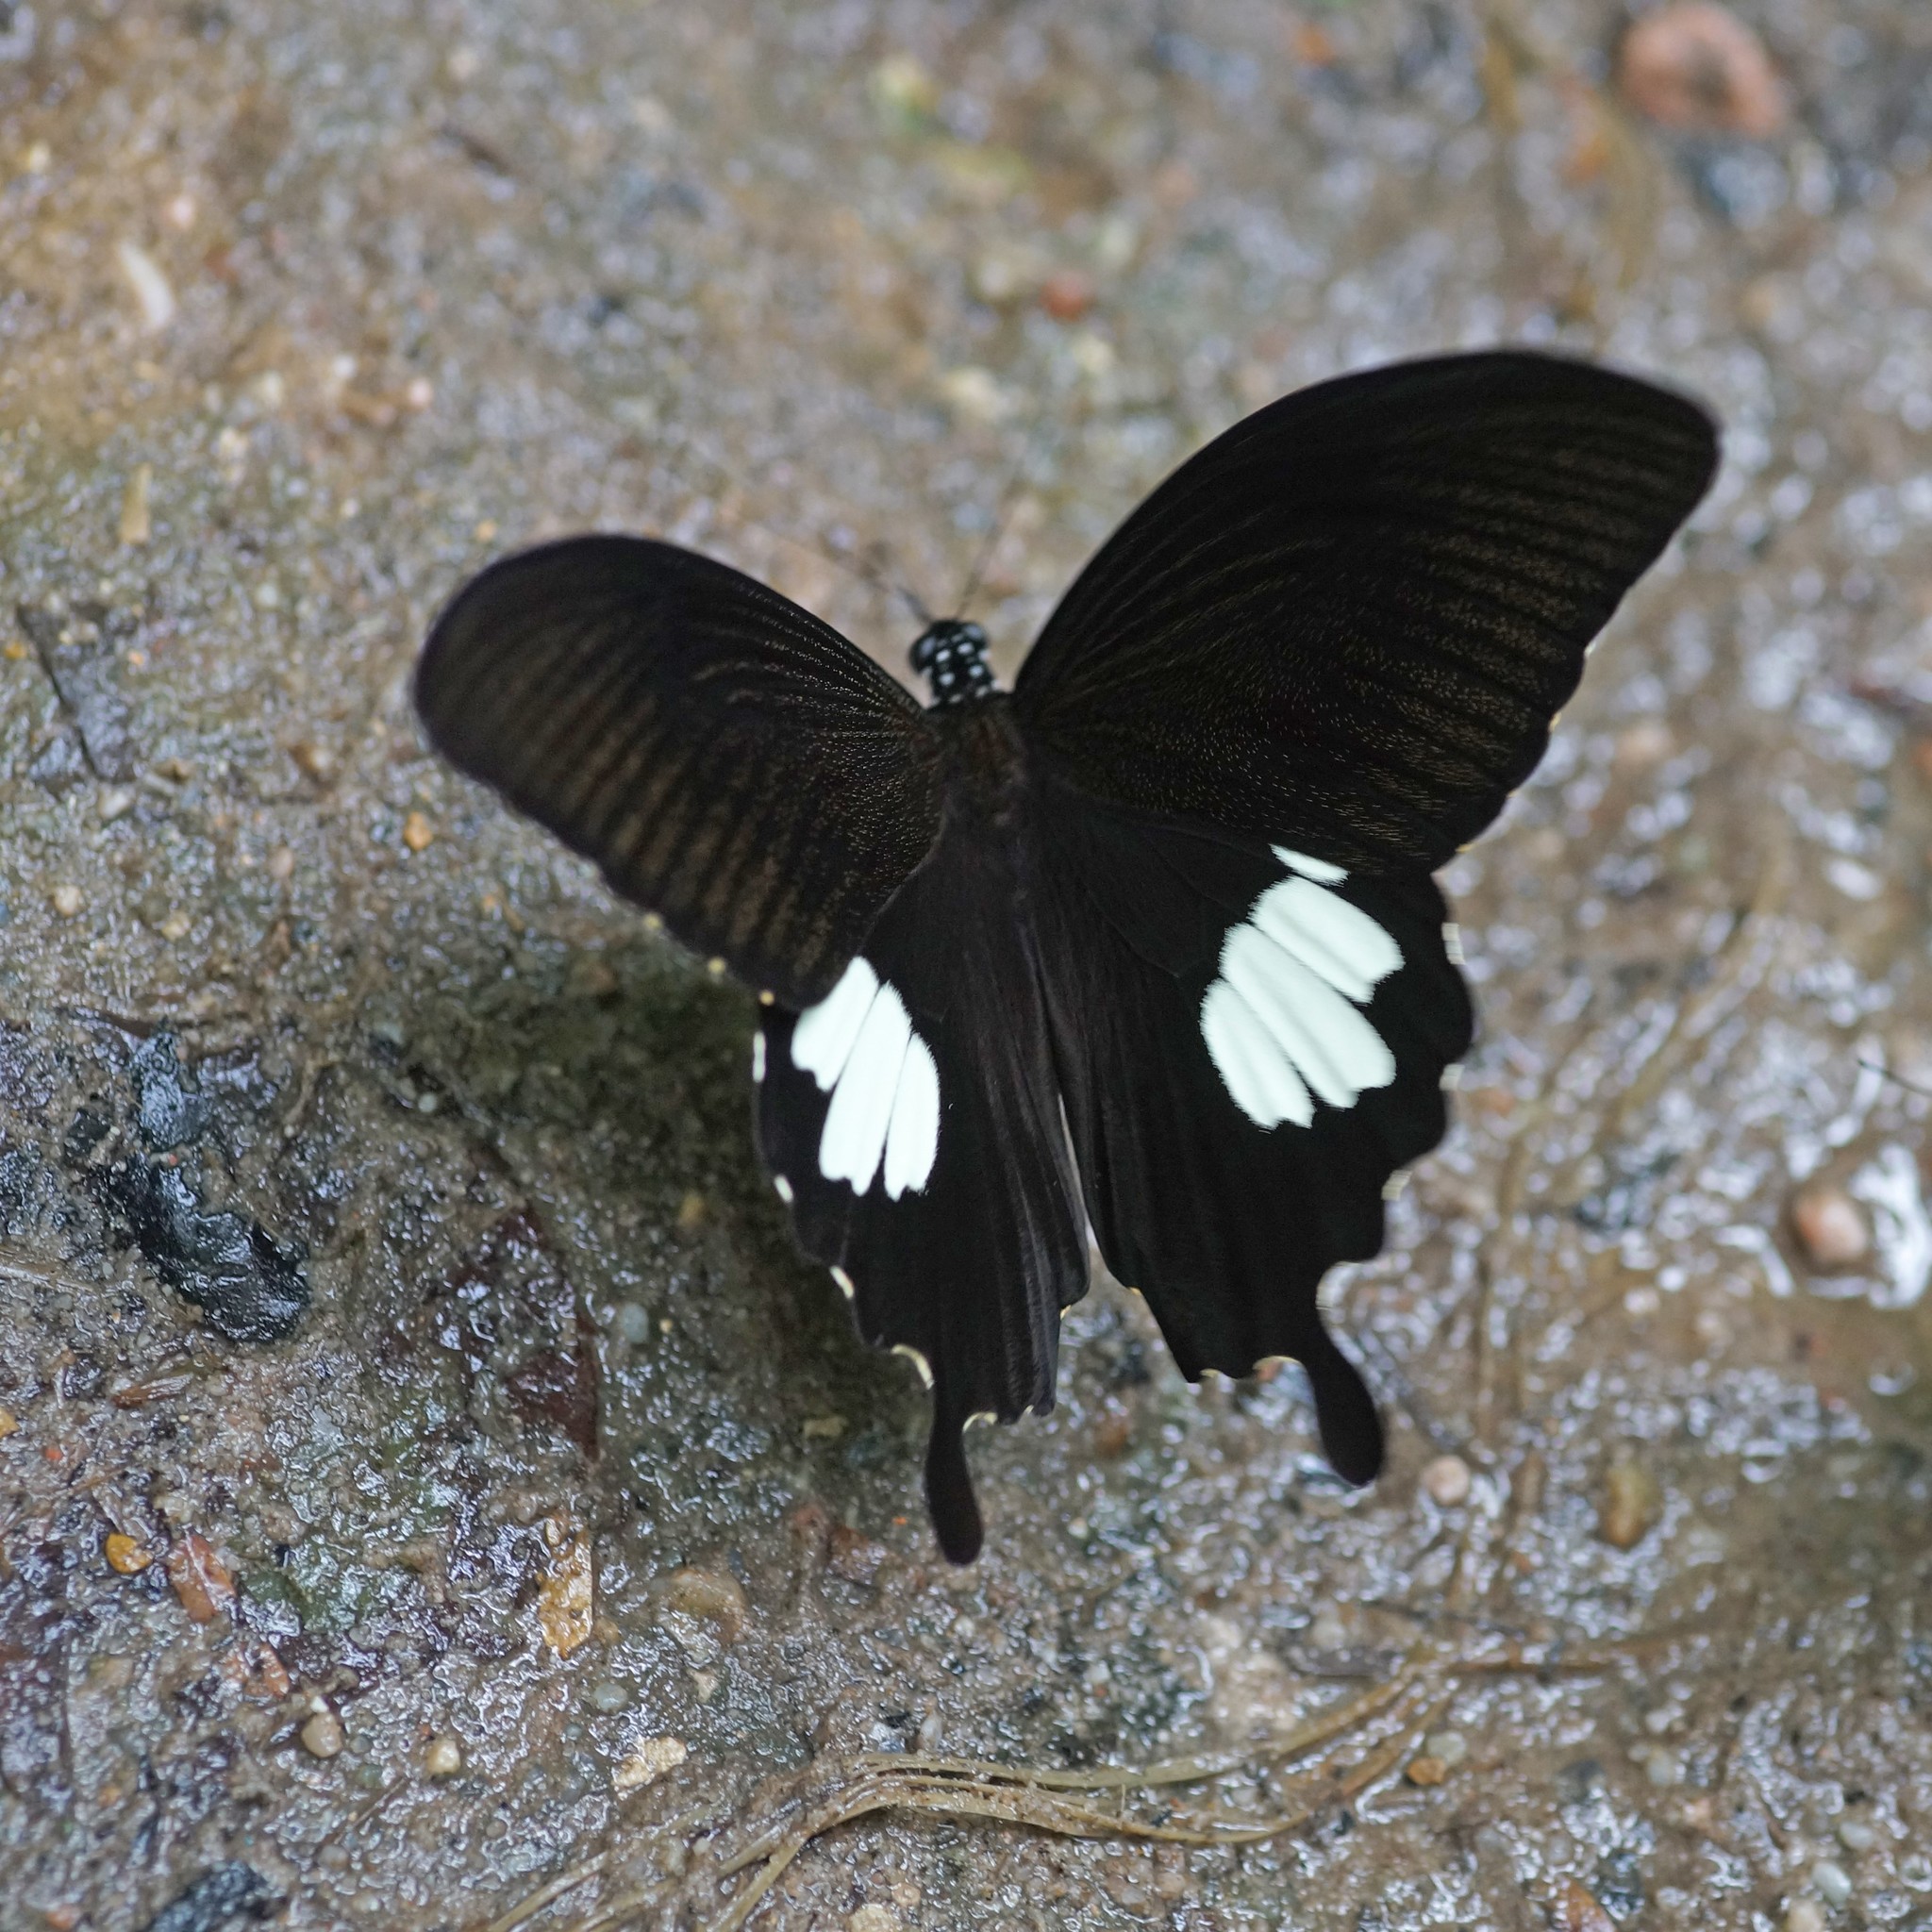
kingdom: Animalia
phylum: Arthropoda
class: Insecta
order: Lepidoptera
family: Papilionidae
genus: Atrophaneura
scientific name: Atrophaneura varuna
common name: Common batwing
